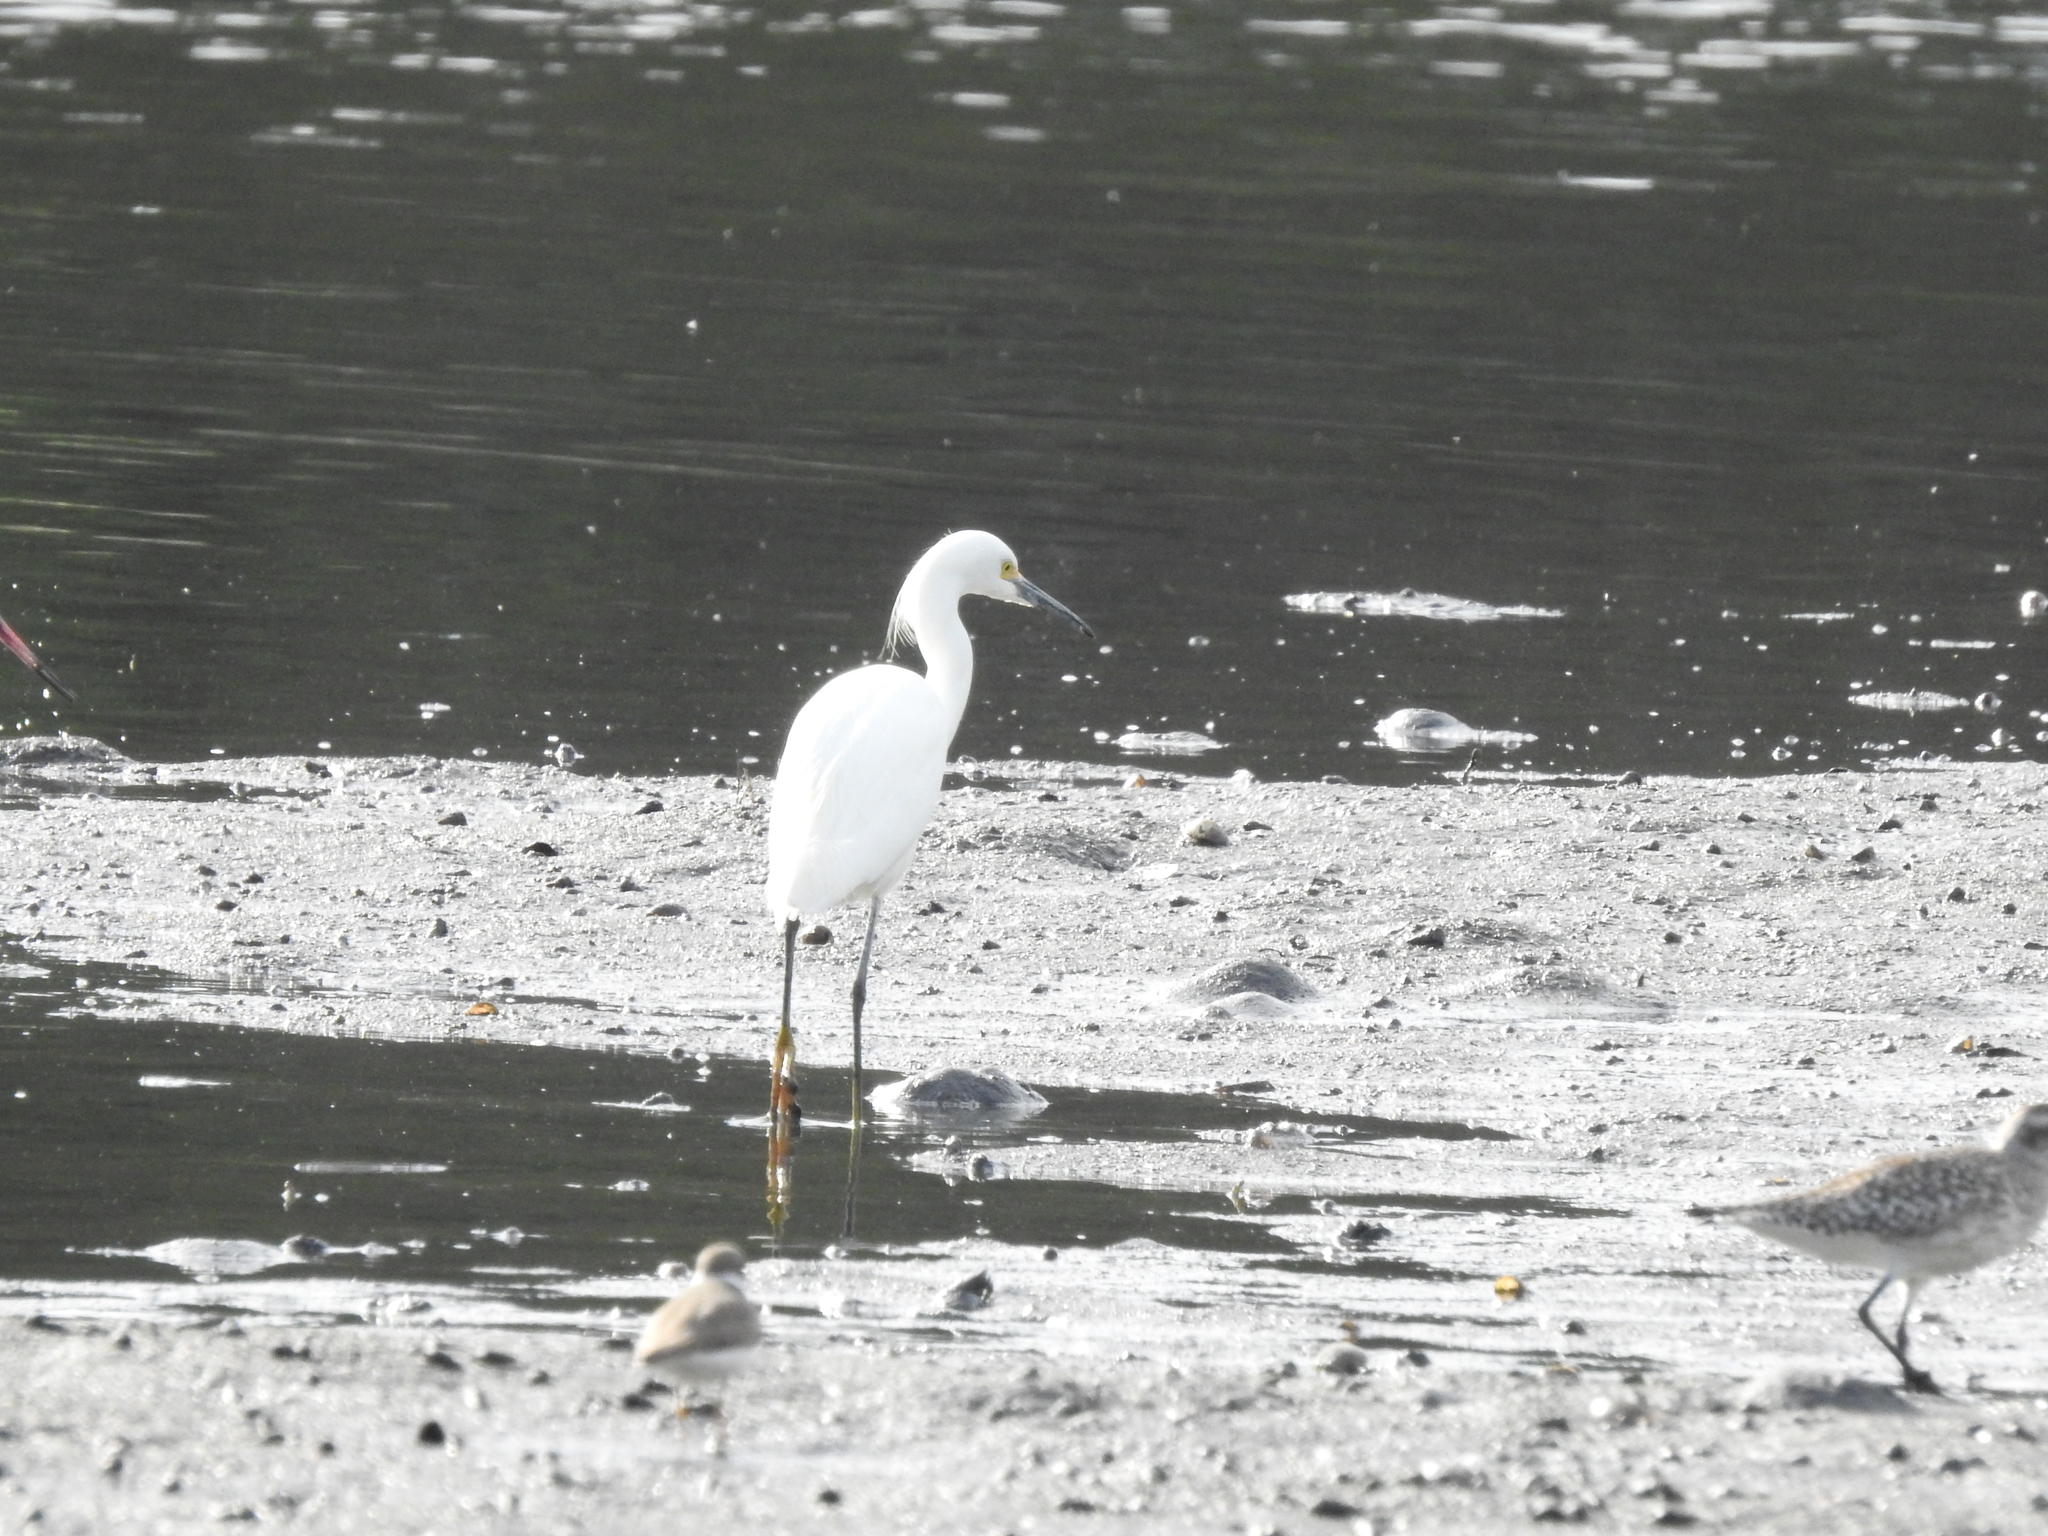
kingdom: Animalia
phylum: Chordata
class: Aves
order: Pelecaniformes
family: Ardeidae
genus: Egretta
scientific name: Egretta thula
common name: Snowy egret
